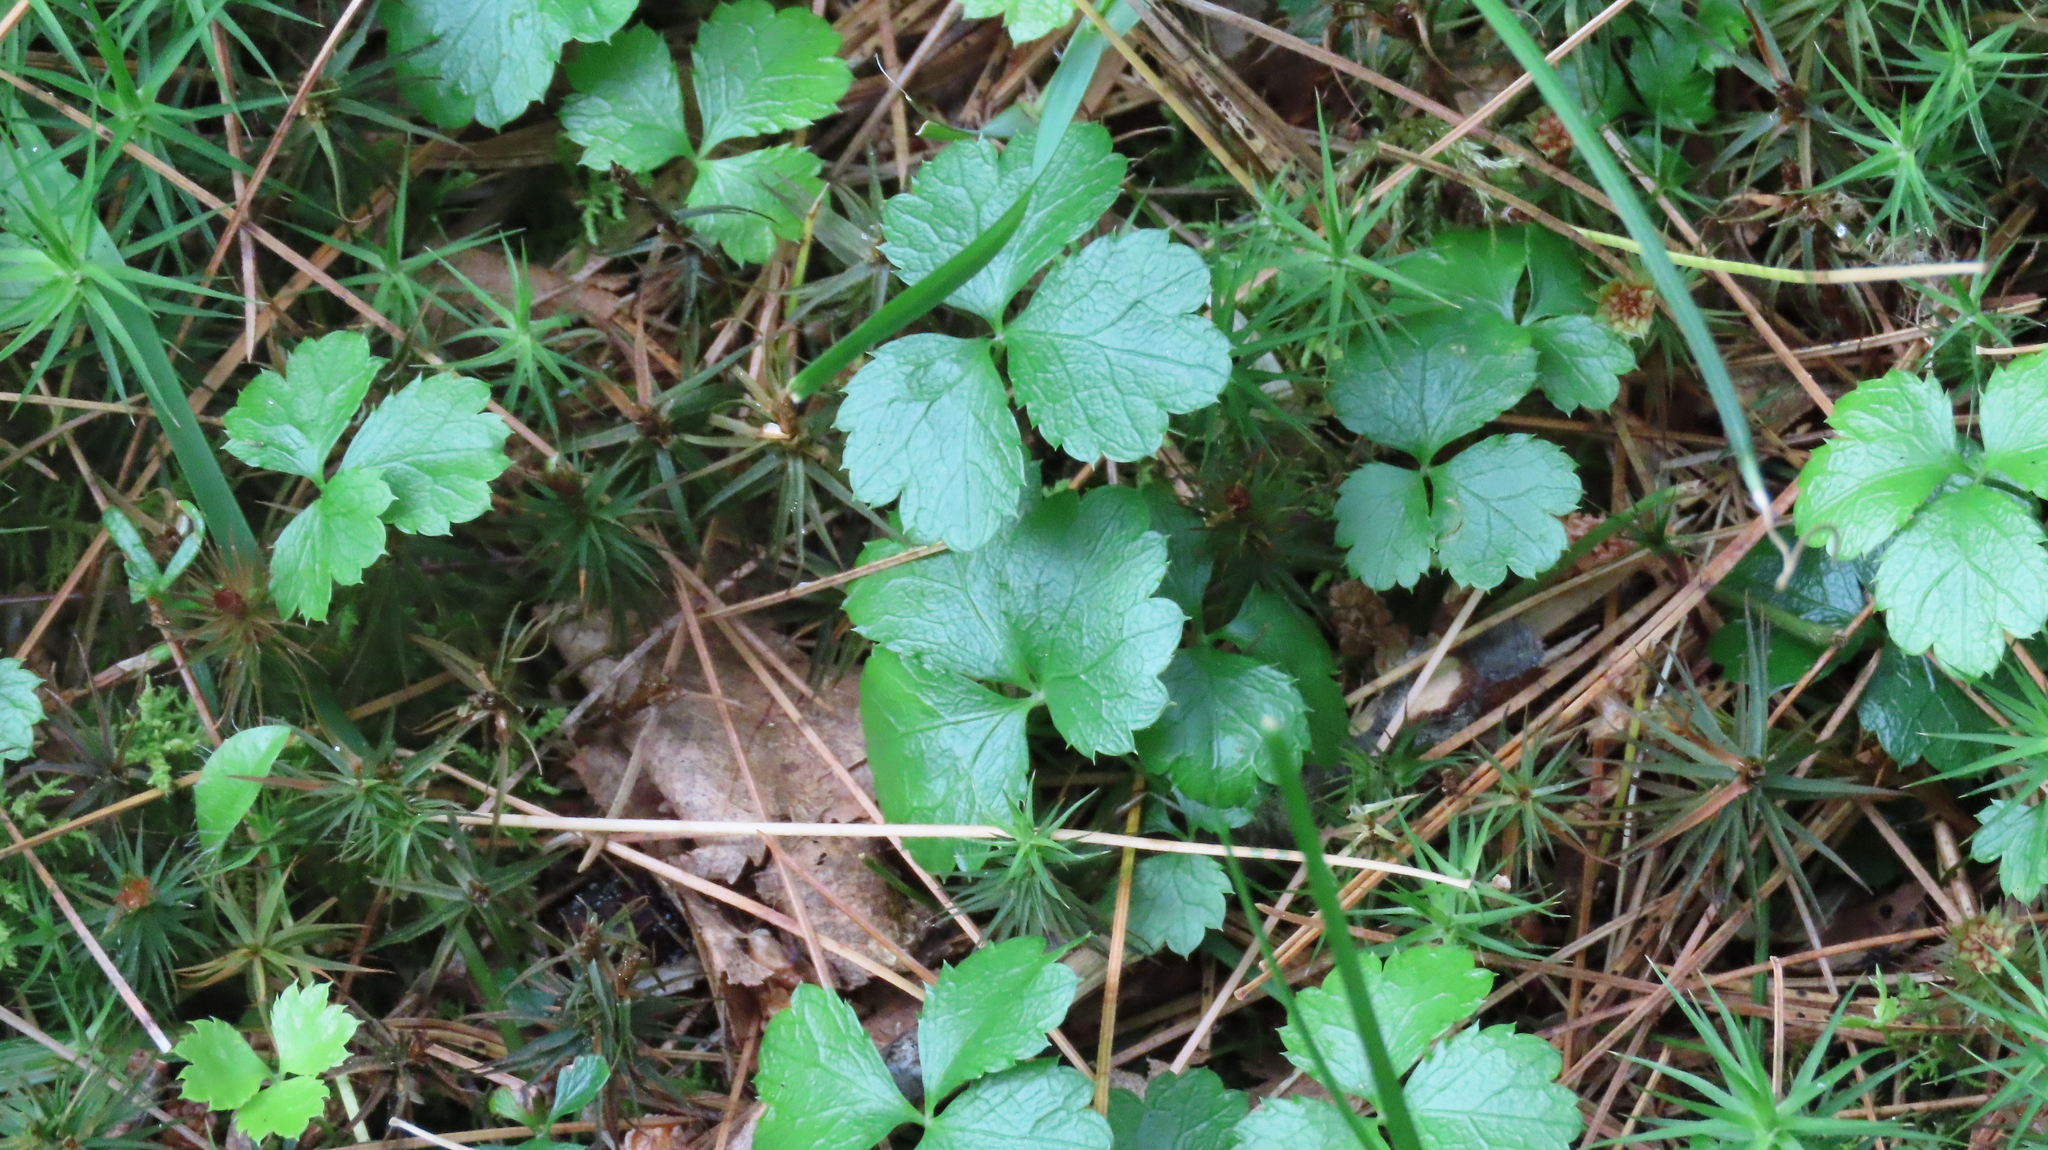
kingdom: Plantae
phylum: Tracheophyta
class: Magnoliopsida
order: Ranunculales
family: Ranunculaceae
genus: Coptis
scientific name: Coptis trifolia
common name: Canker-root
